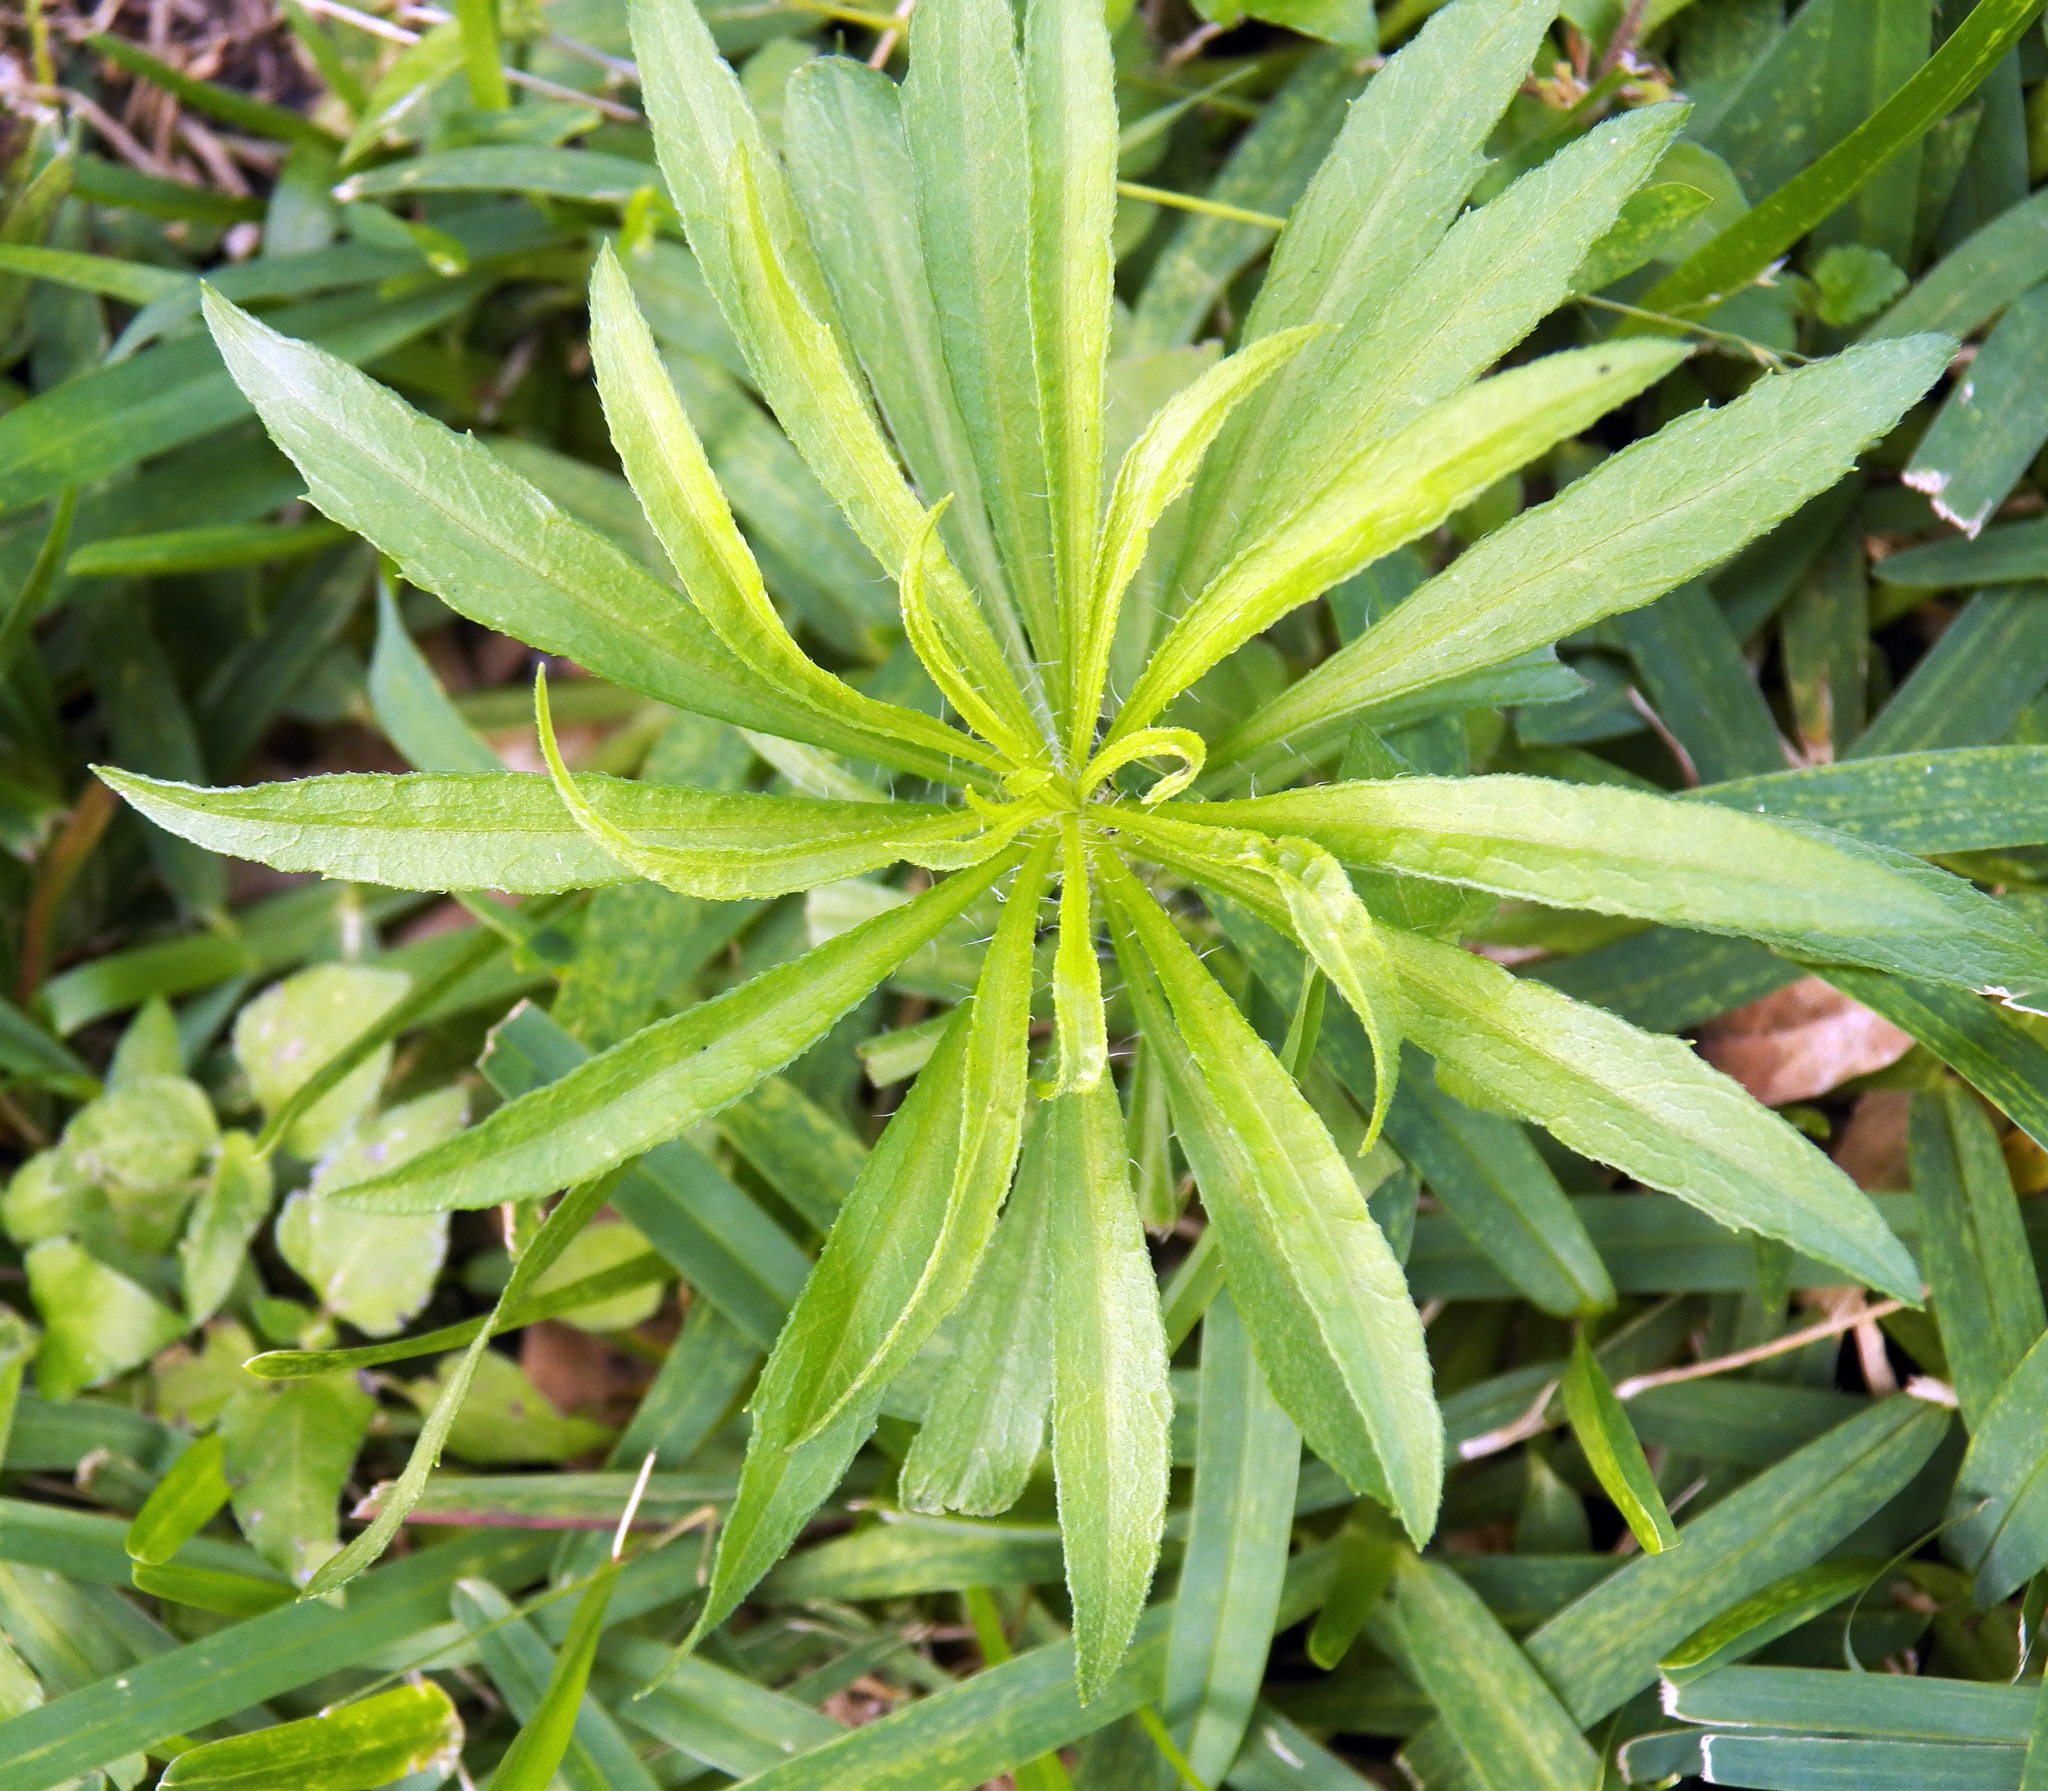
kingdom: Plantae
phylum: Tracheophyta
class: Magnoliopsida
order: Asterales
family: Asteraceae
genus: Erigeron
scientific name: Erigeron canadensis
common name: Canadian fleabane
